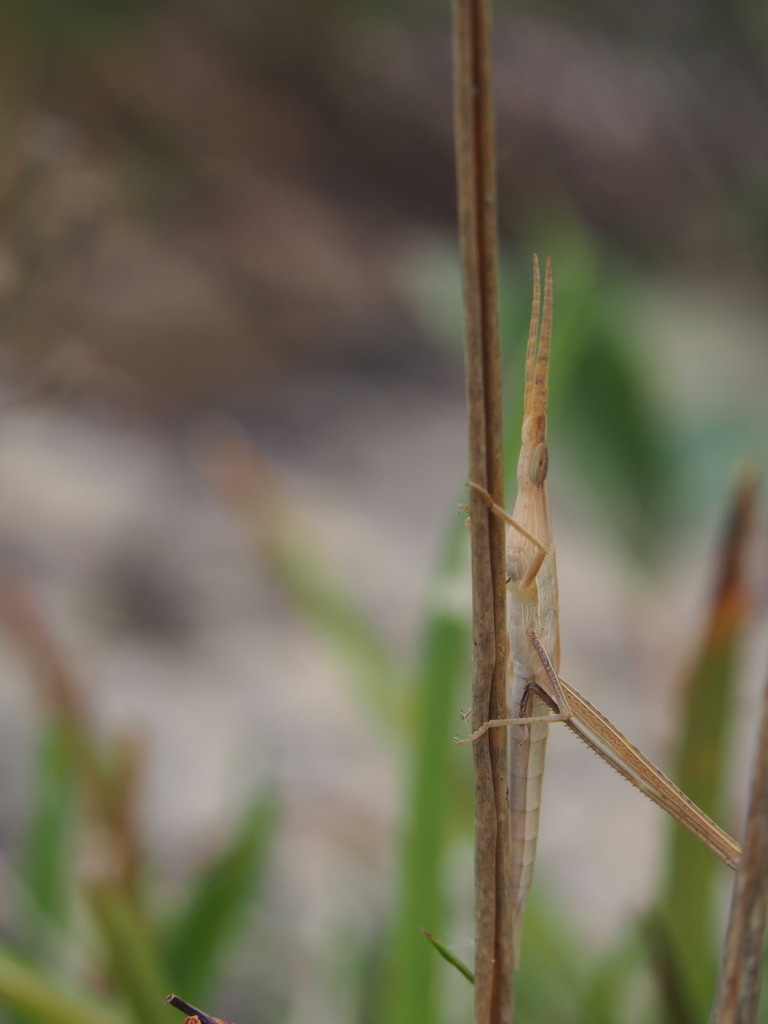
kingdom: Animalia
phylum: Arthropoda
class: Insecta
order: Orthoptera
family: Acrididae
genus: Acrida
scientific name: Acrida conica
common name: Giant green slantface
